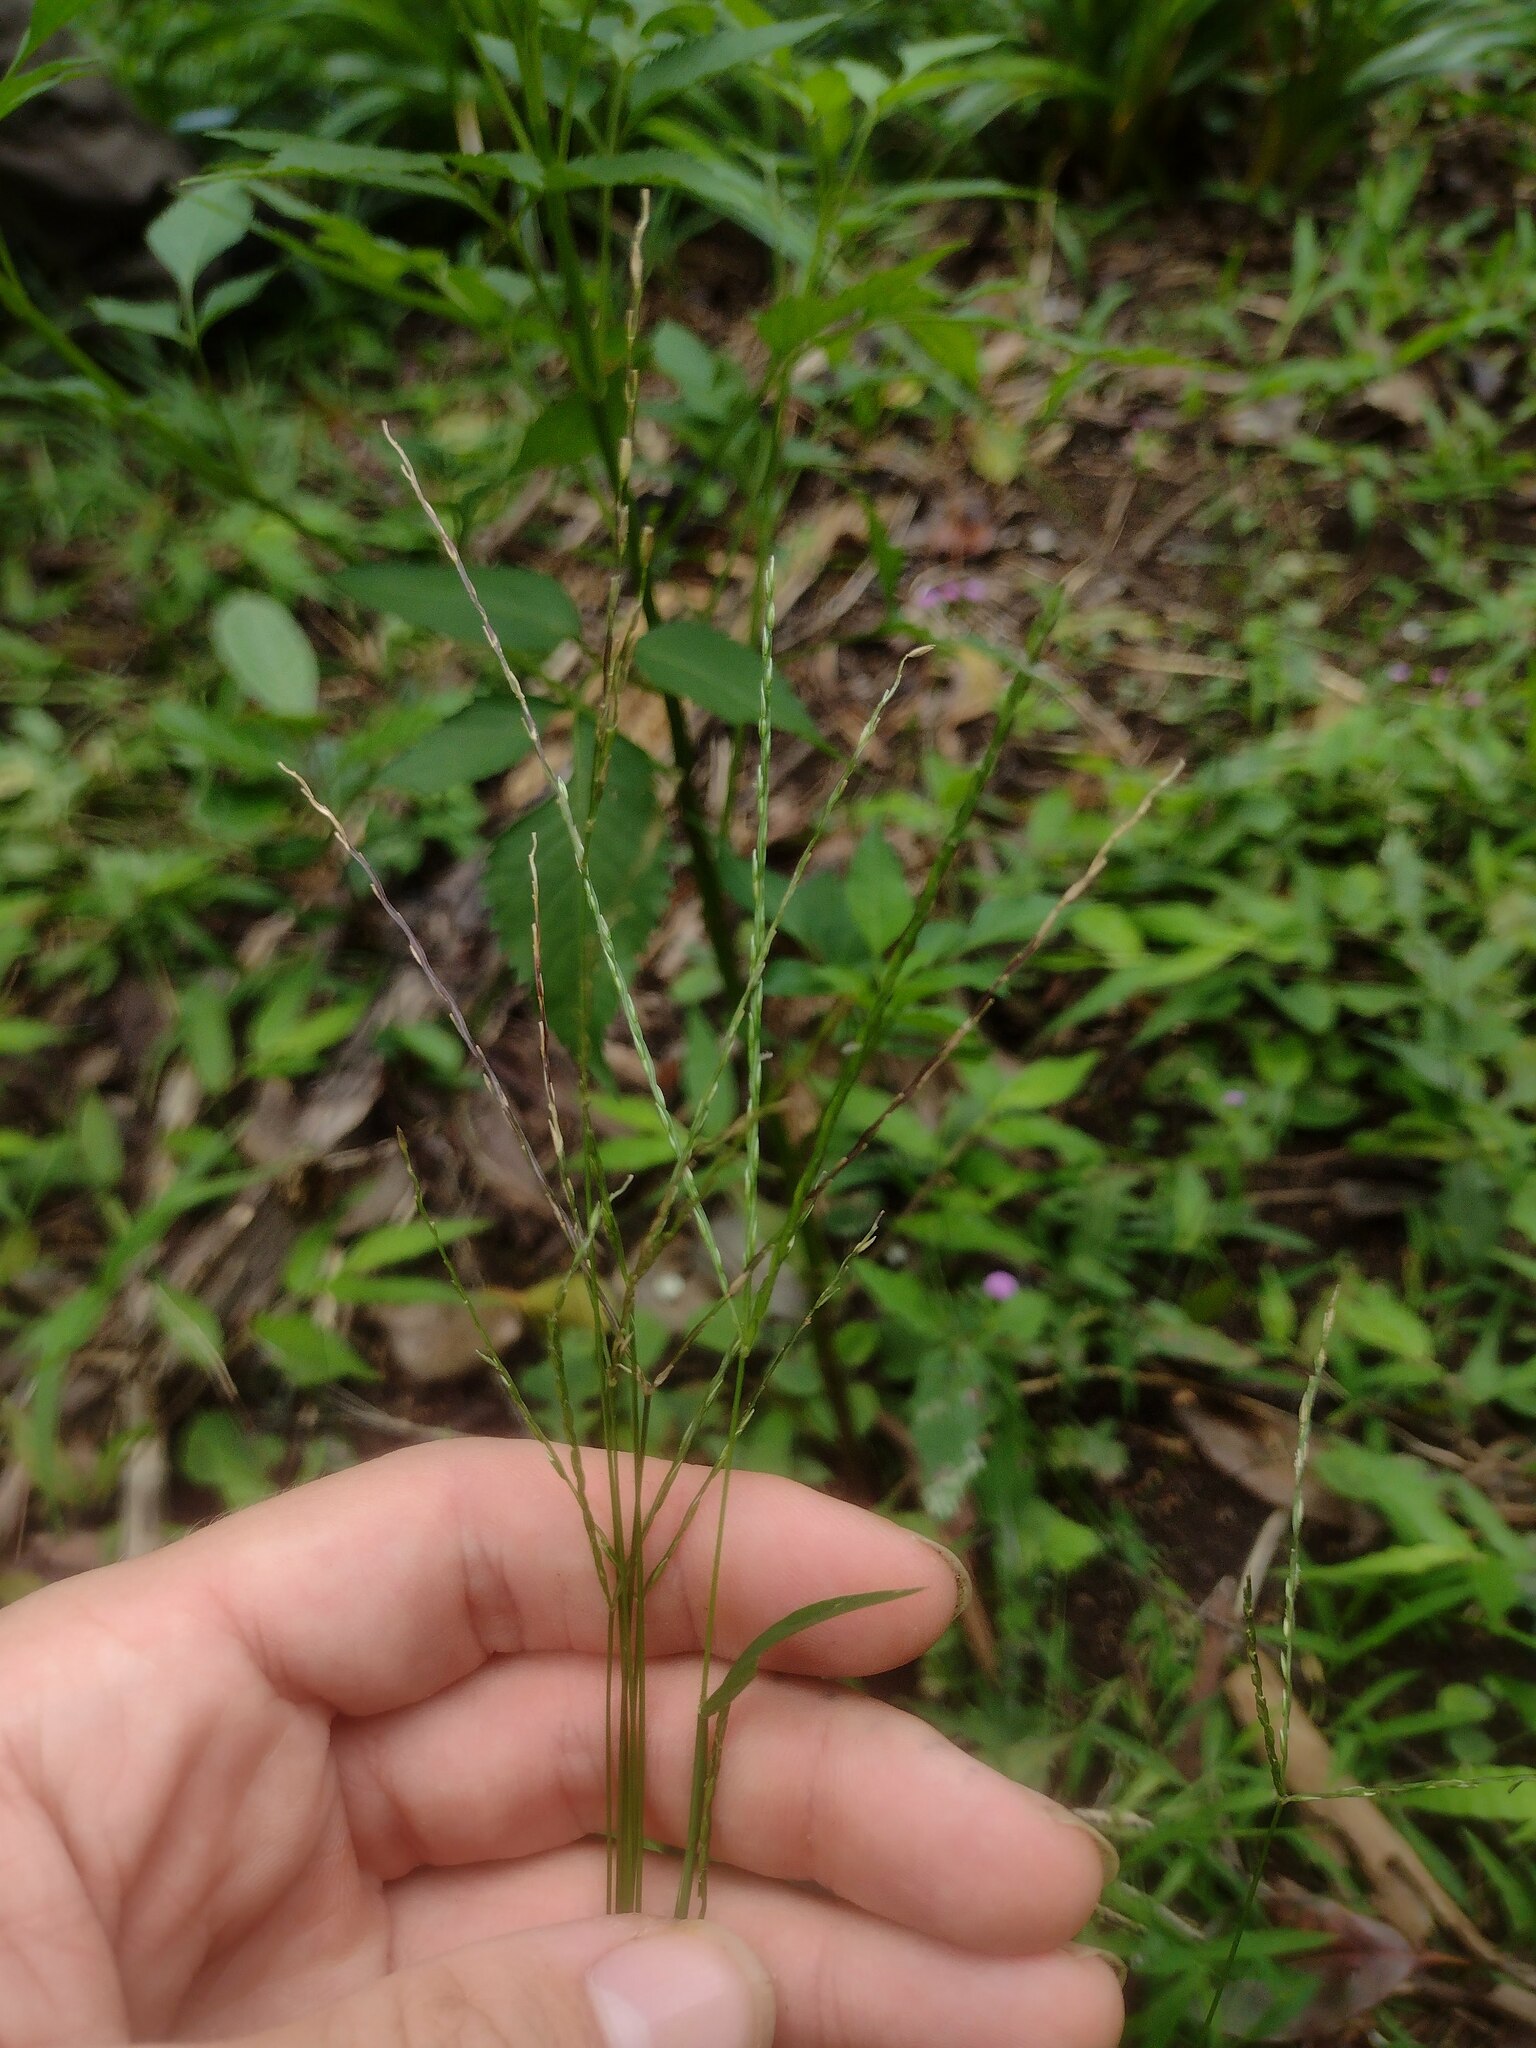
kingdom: Plantae
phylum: Tracheophyta
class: Liliopsida
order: Poales
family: Poaceae
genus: Digitaria
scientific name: Digitaria radicosa
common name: Trailing crabgrass
